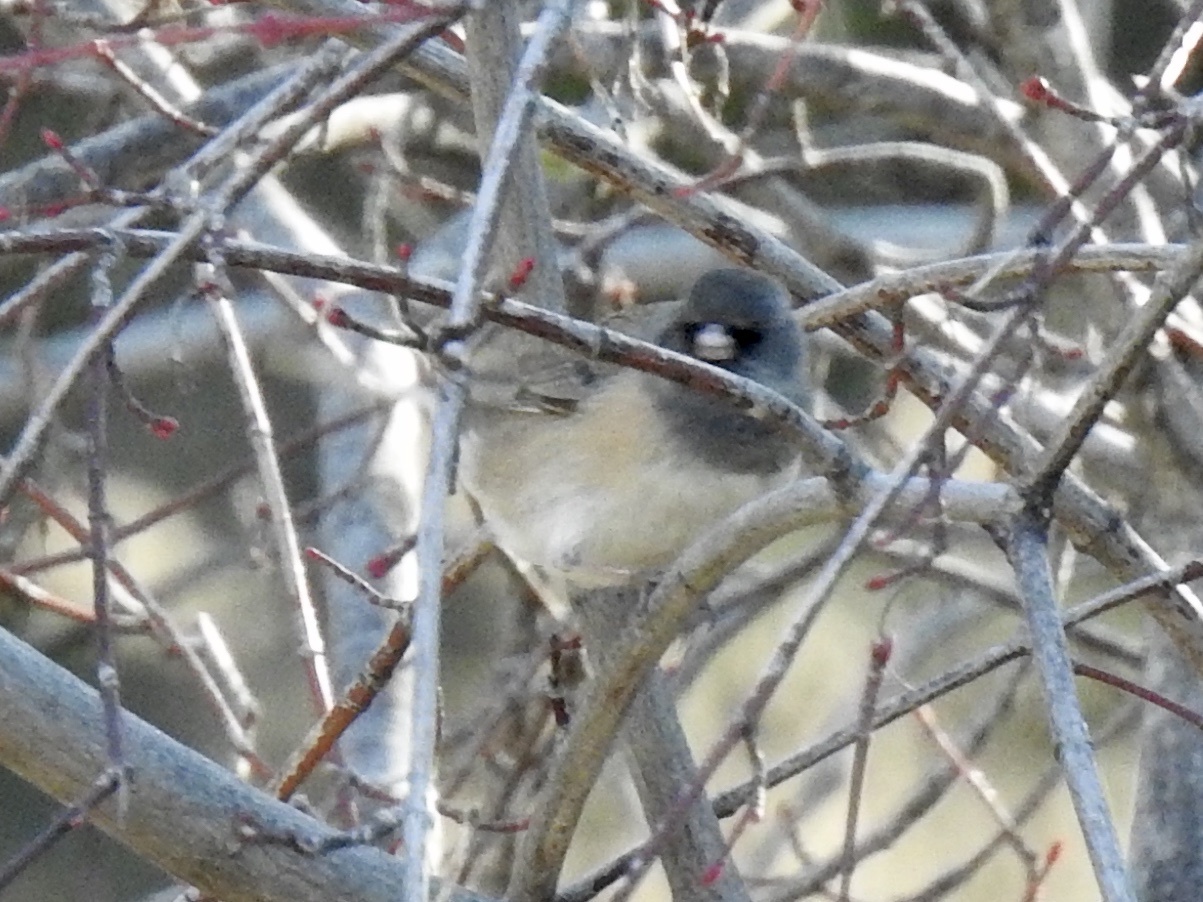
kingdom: Animalia
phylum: Chordata
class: Aves
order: Passeriformes
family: Passerellidae
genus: Junco
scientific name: Junco hyemalis
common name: Dark-eyed junco
